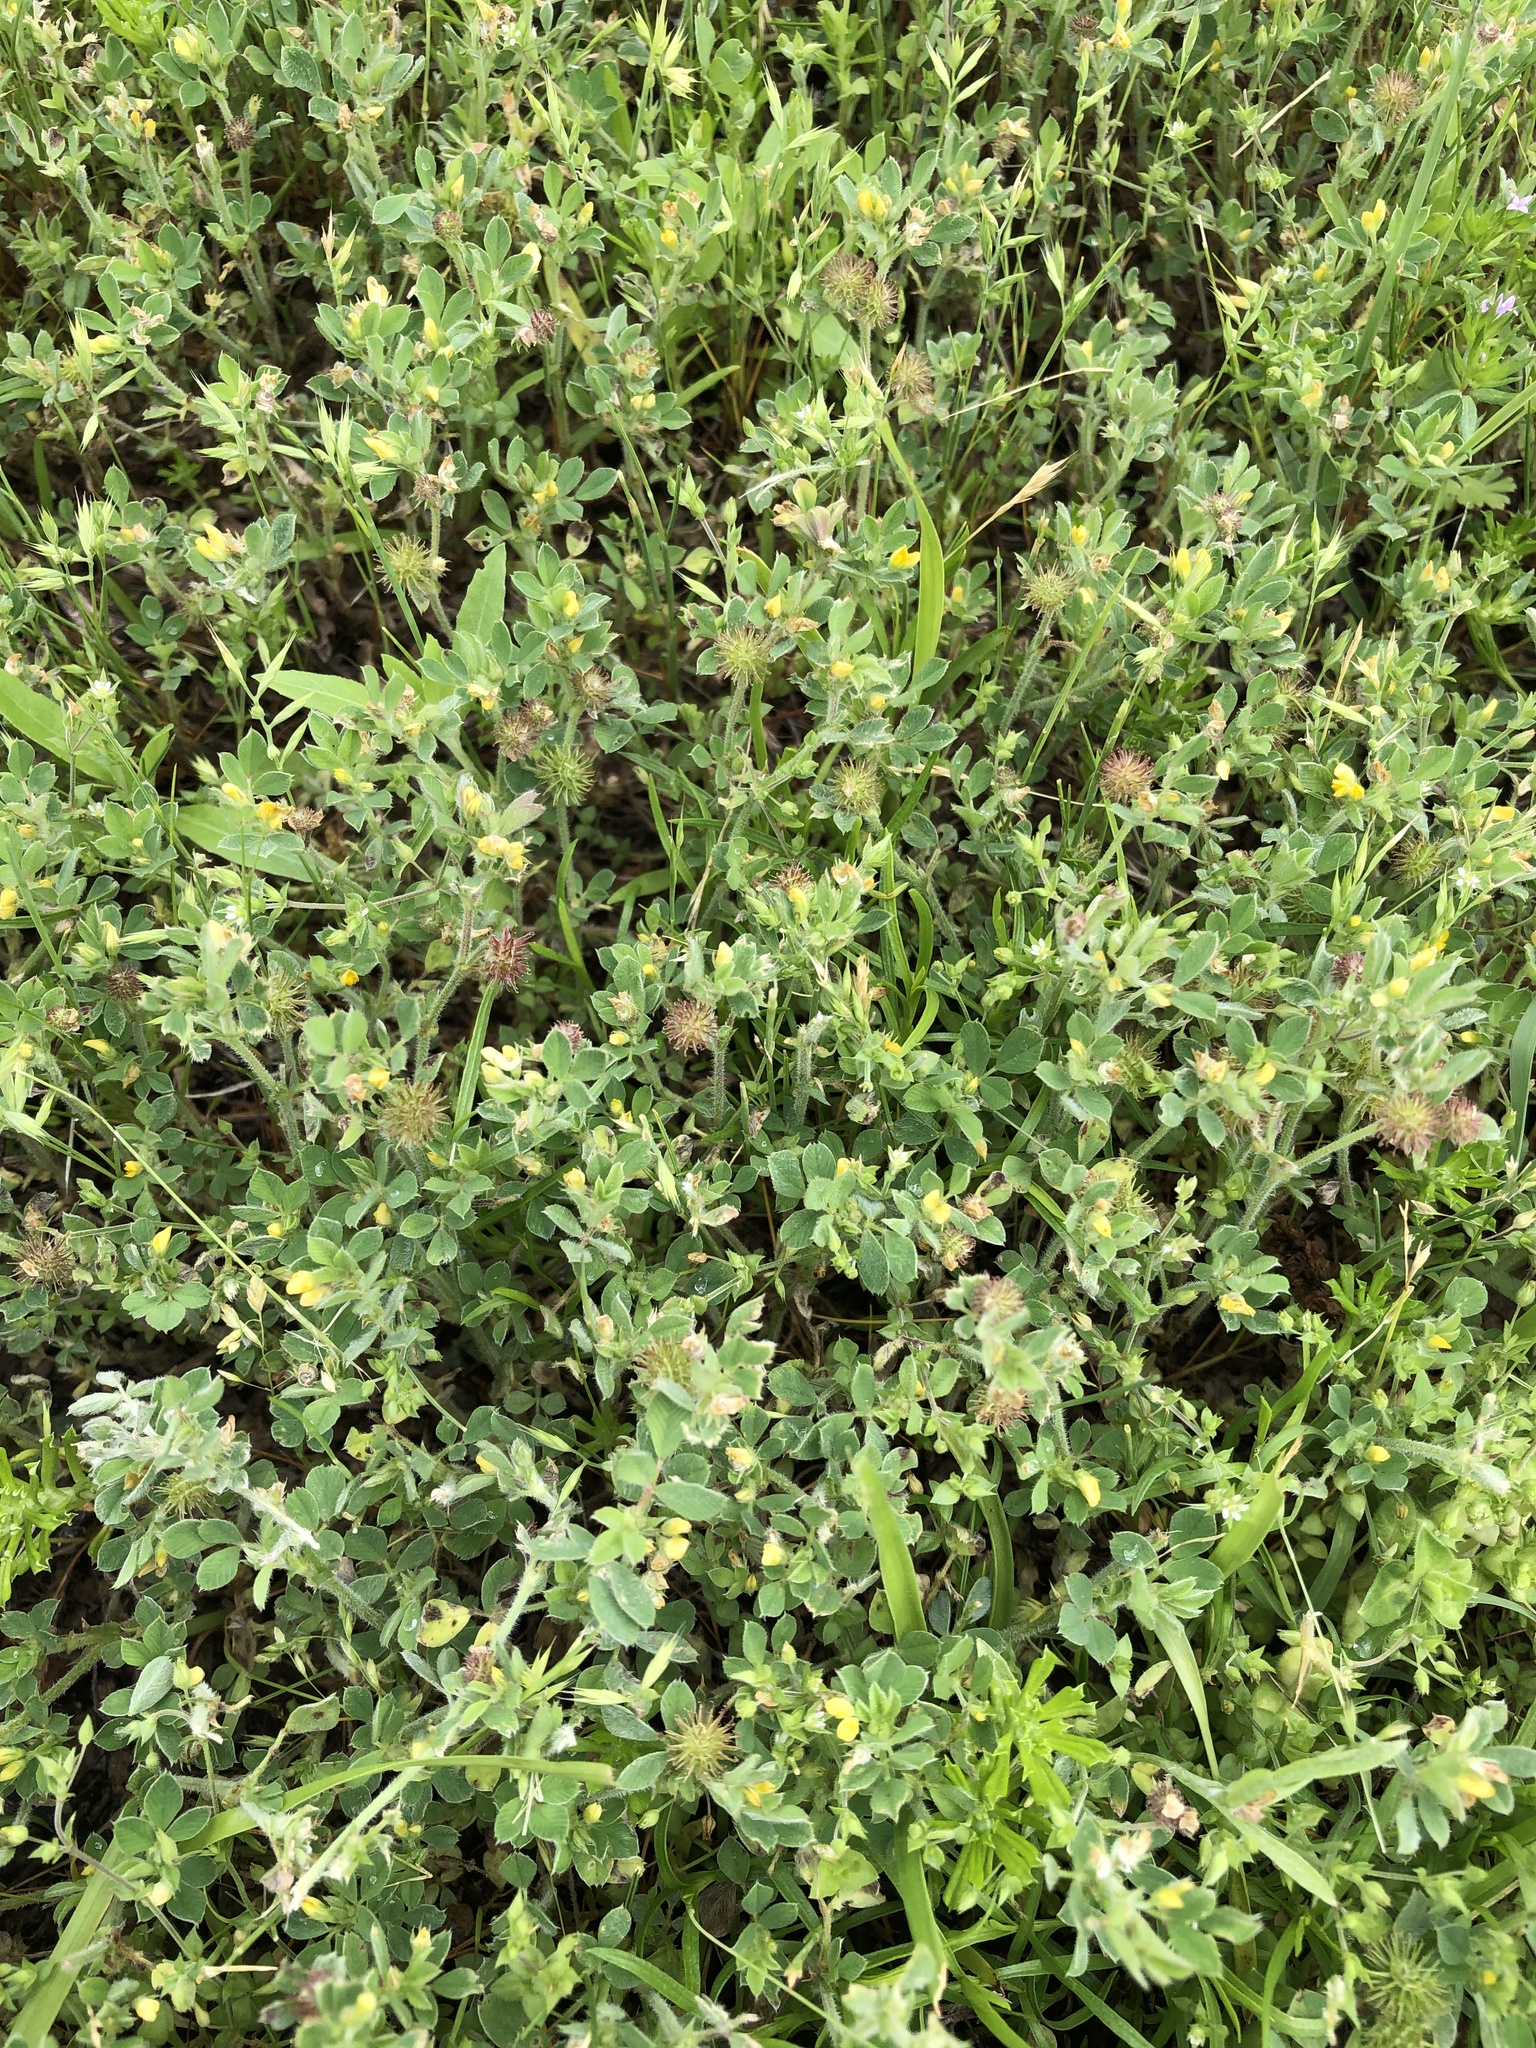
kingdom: Plantae
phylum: Tracheophyta
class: Magnoliopsida
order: Fabales
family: Fabaceae
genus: Medicago
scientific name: Medicago minima
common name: Little bur-clover
